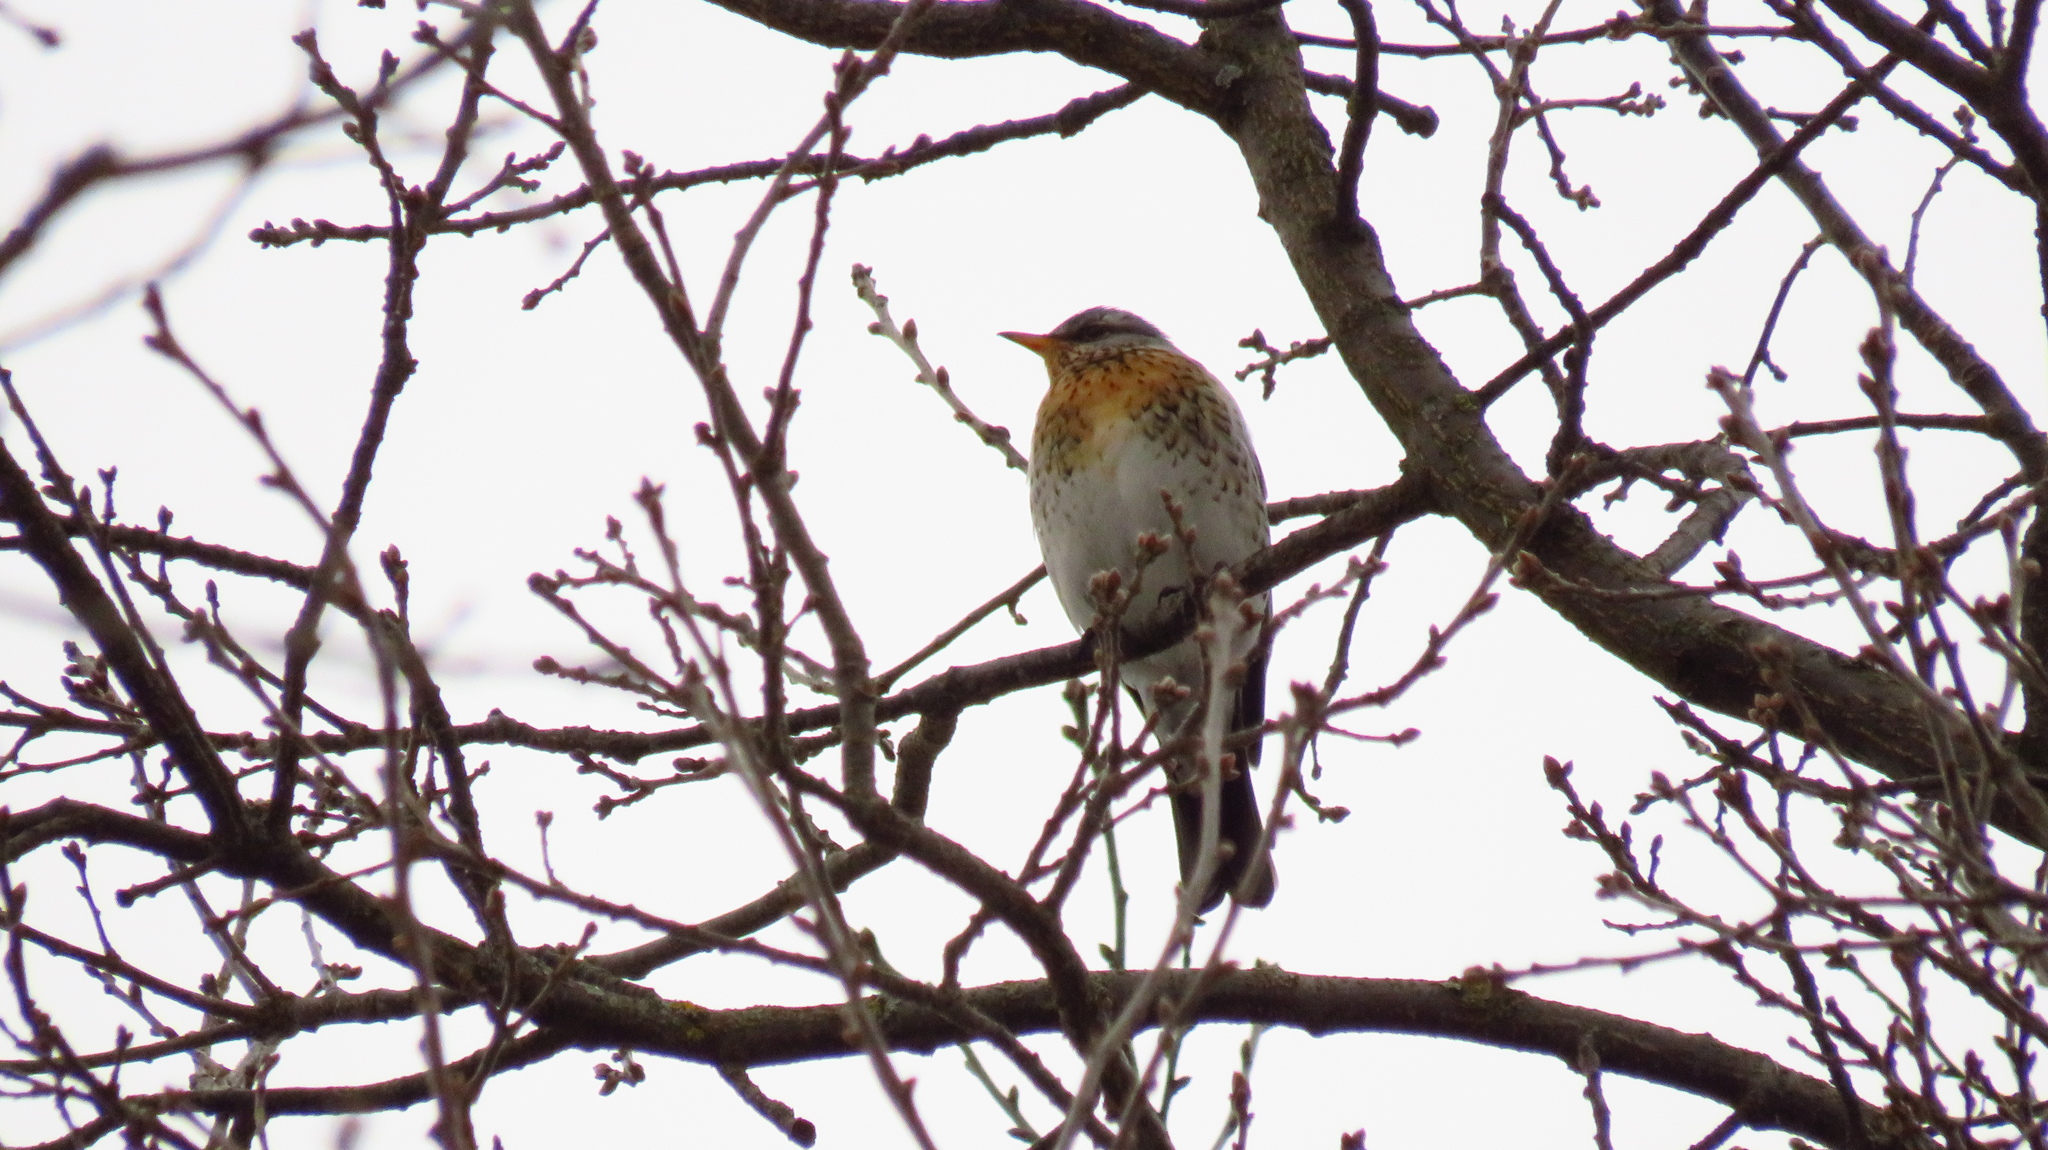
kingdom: Animalia
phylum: Chordata
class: Aves
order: Passeriformes
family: Turdidae
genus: Turdus
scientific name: Turdus pilaris
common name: Fieldfare
